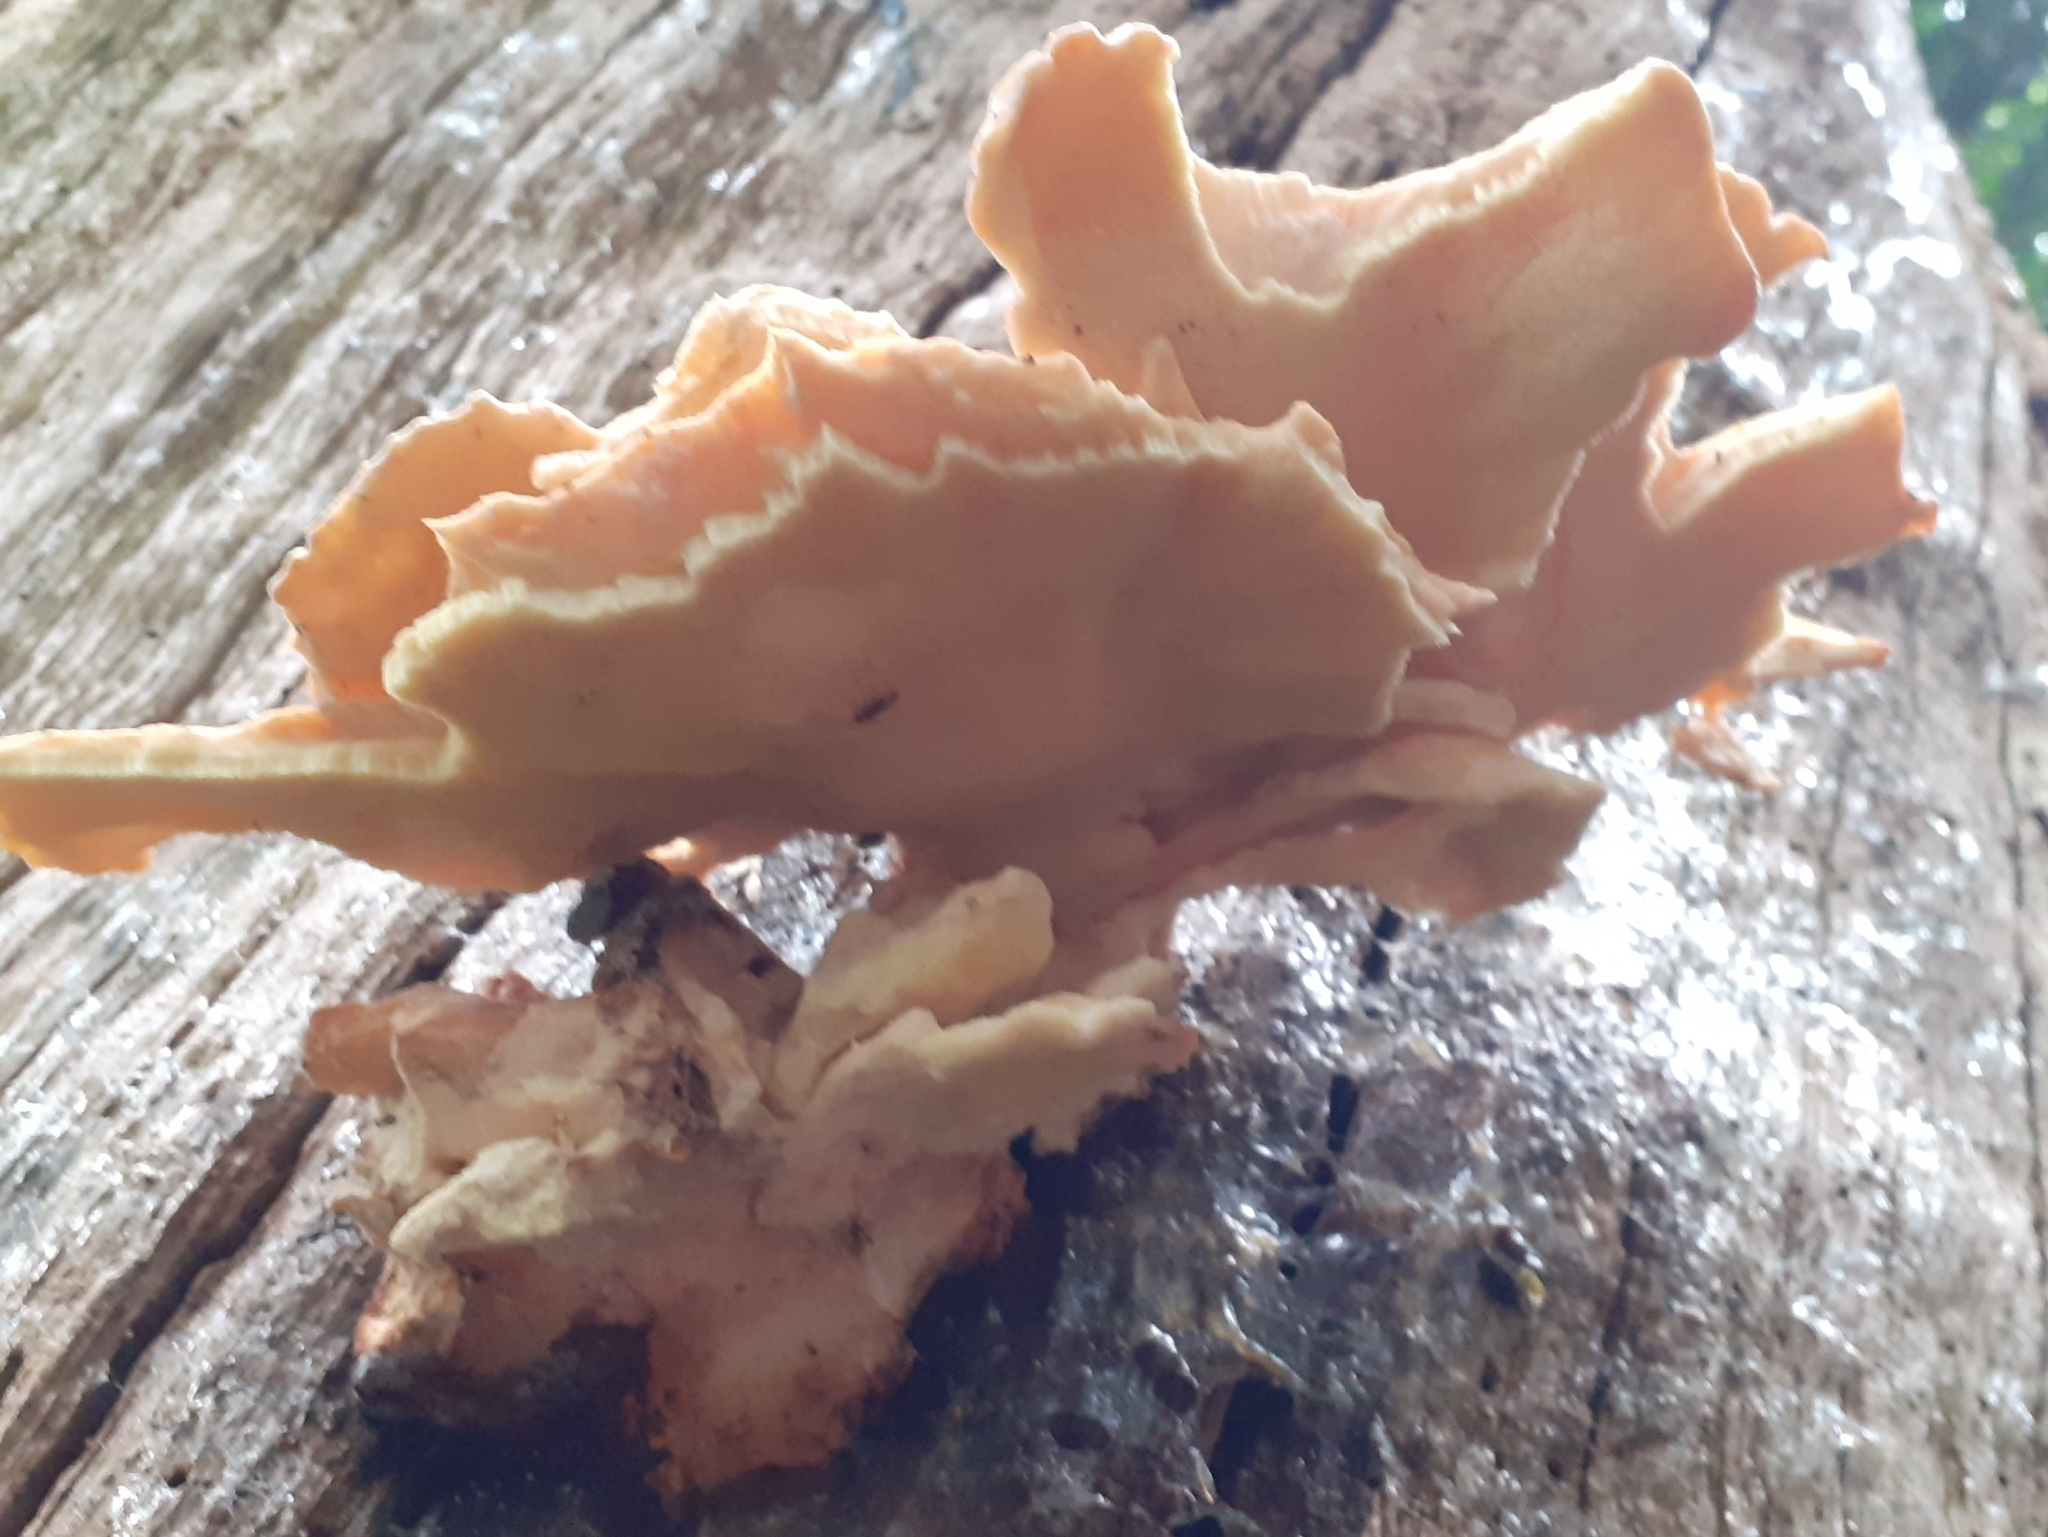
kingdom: Fungi
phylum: Basidiomycota
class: Agaricomycetes
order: Polyporales
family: Laetiporaceae
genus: Laetiporus
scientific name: Laetiporus sulphureus
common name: Chicken of the woods
